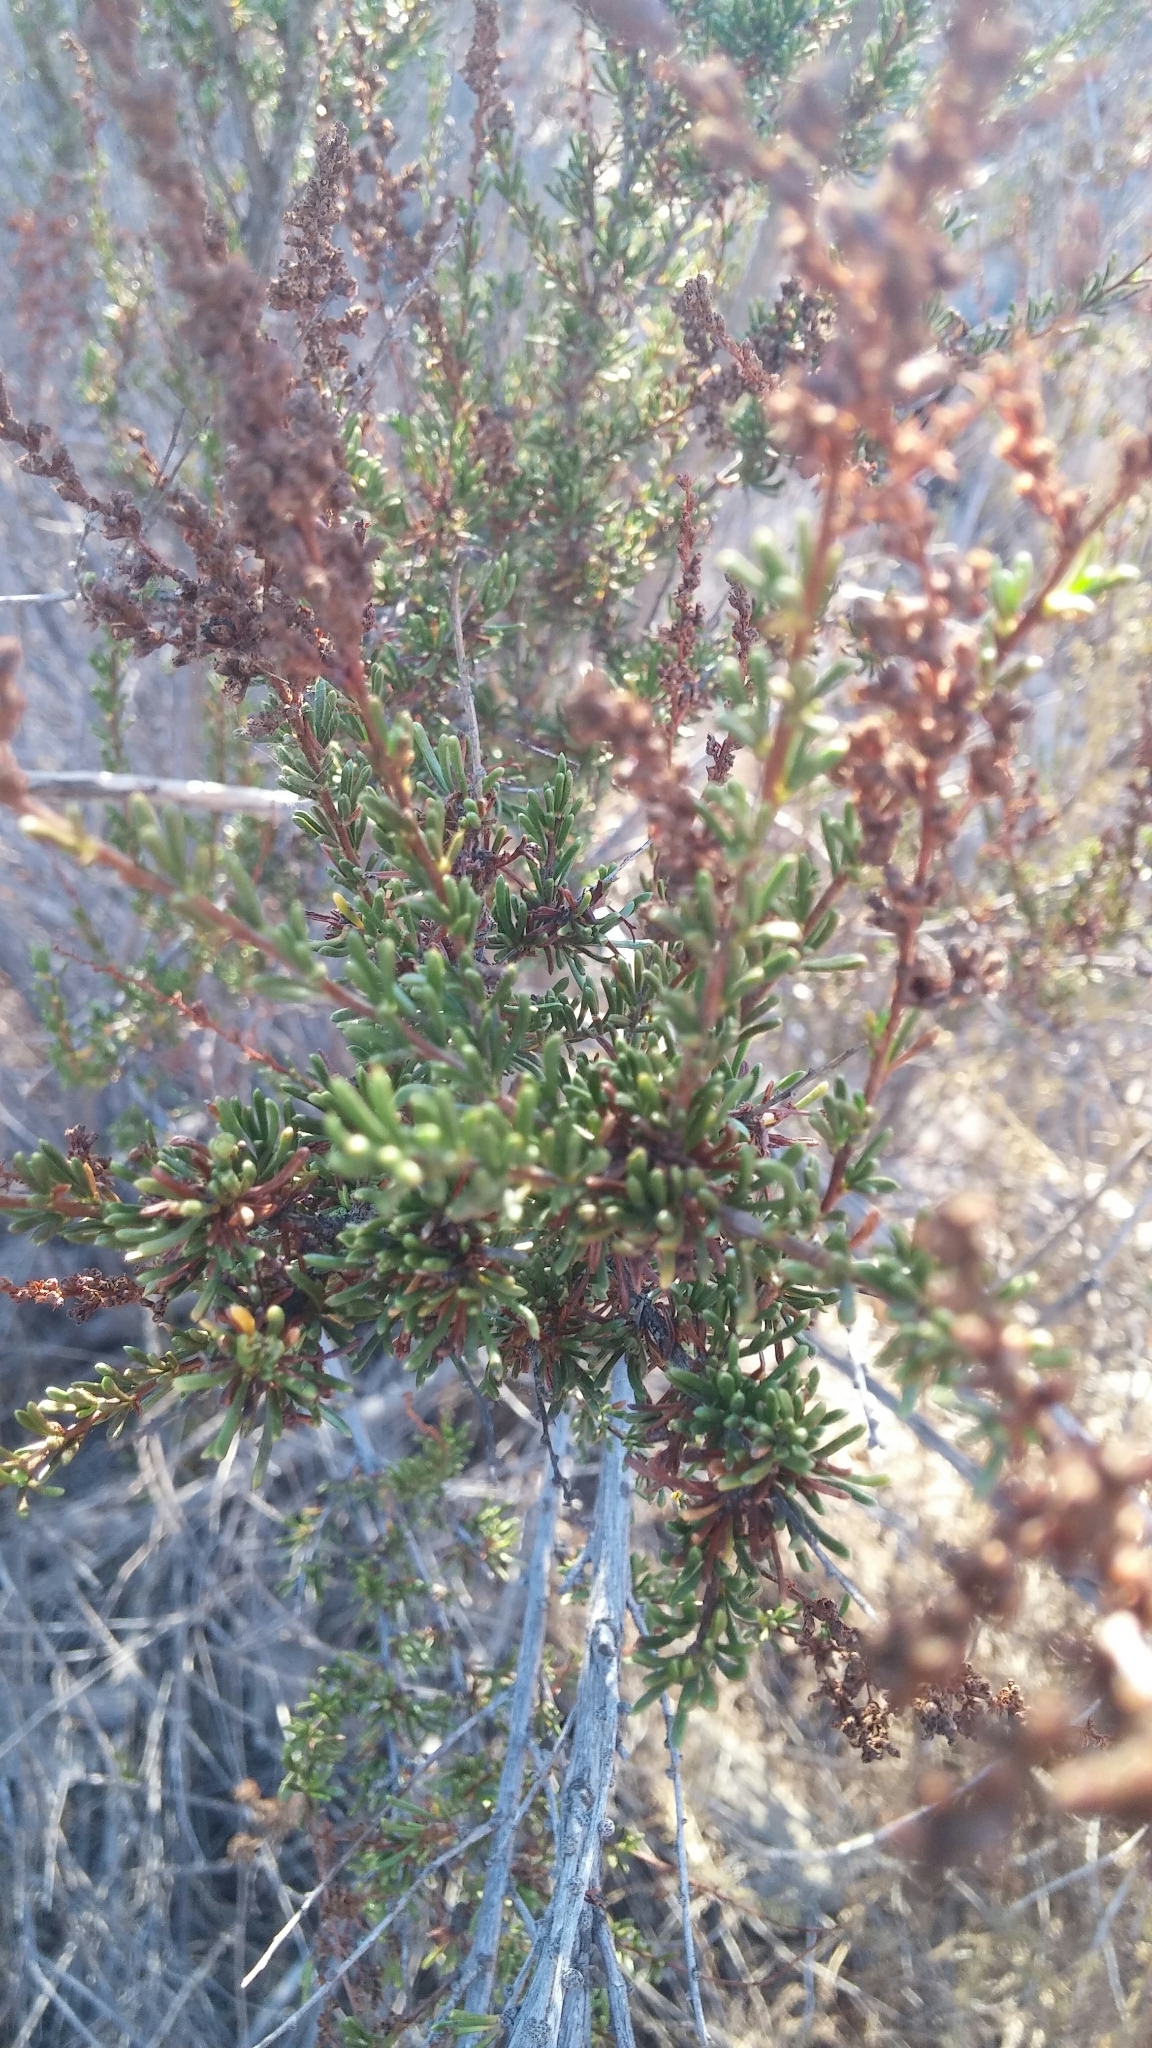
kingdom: Plantae
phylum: Tracheophyta
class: Magnoliopsida
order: Rosales
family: Rosaceae
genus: Adenostoma
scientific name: Adenostoma fasciculatum
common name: Chamise
